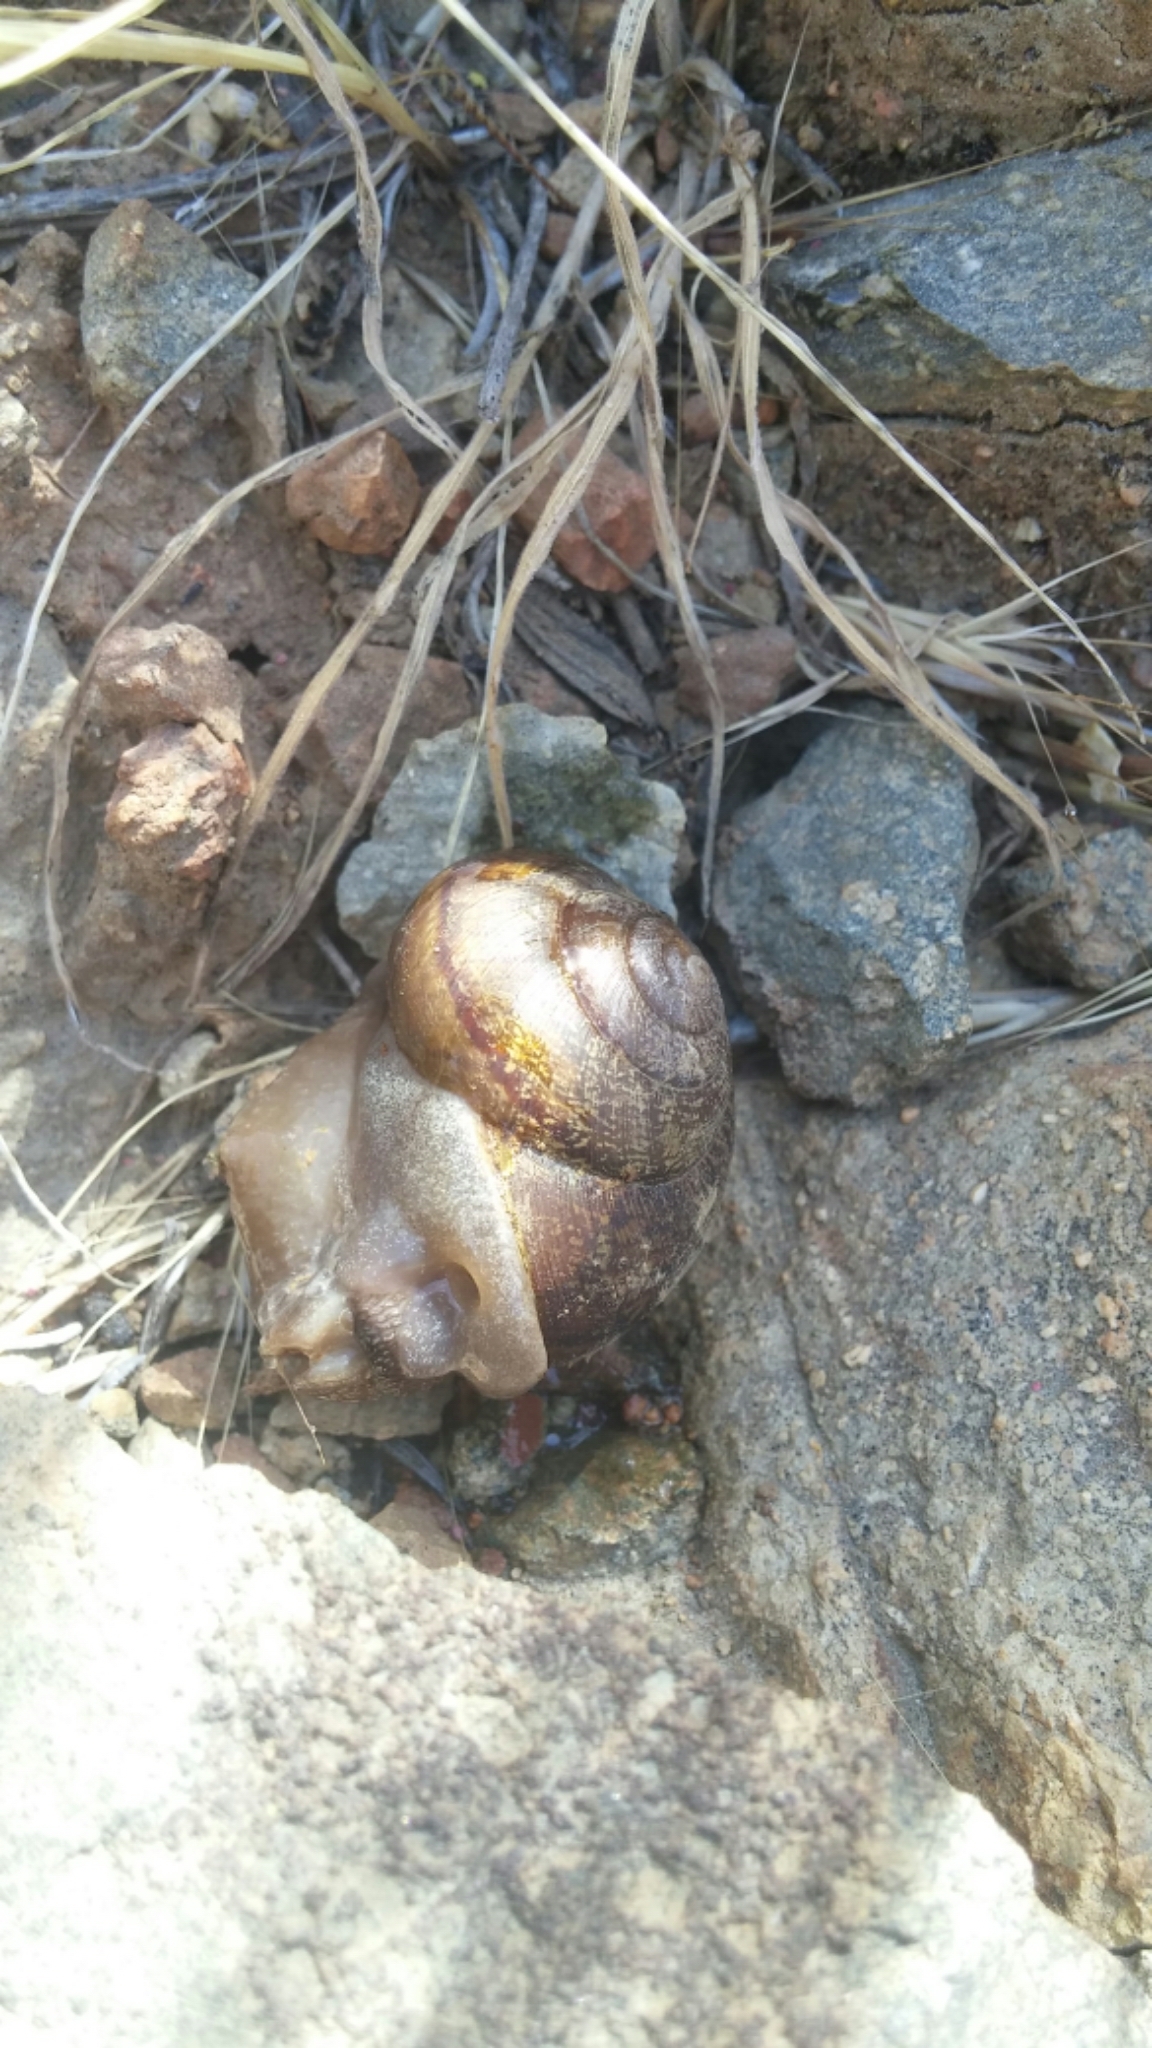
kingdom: Animalia
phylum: Mollusca
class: Gastropoda
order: Stylommatophora
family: Xanthonychidae
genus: Xerarionta
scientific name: Xerarionta stearnsiana
